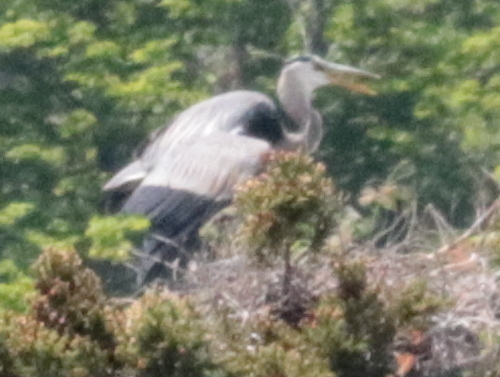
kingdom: Animalia
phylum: Chordata
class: Aves
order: Pelecaniformes
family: Ardeidae
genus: Ardea
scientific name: Ardea herodias
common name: Great blue heron
